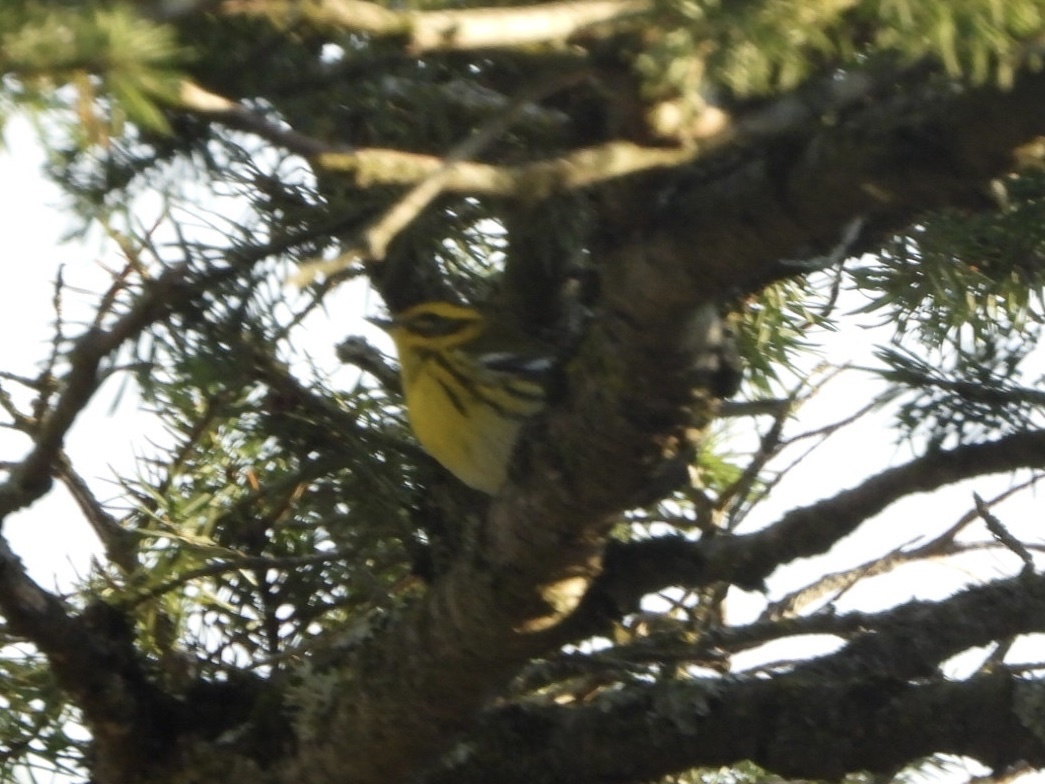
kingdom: Animalia
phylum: Chordata
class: Aves
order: Passeriformes
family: Parulidae
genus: Setophaga
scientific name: Setophaga townsendi
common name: Townsend's warbler
